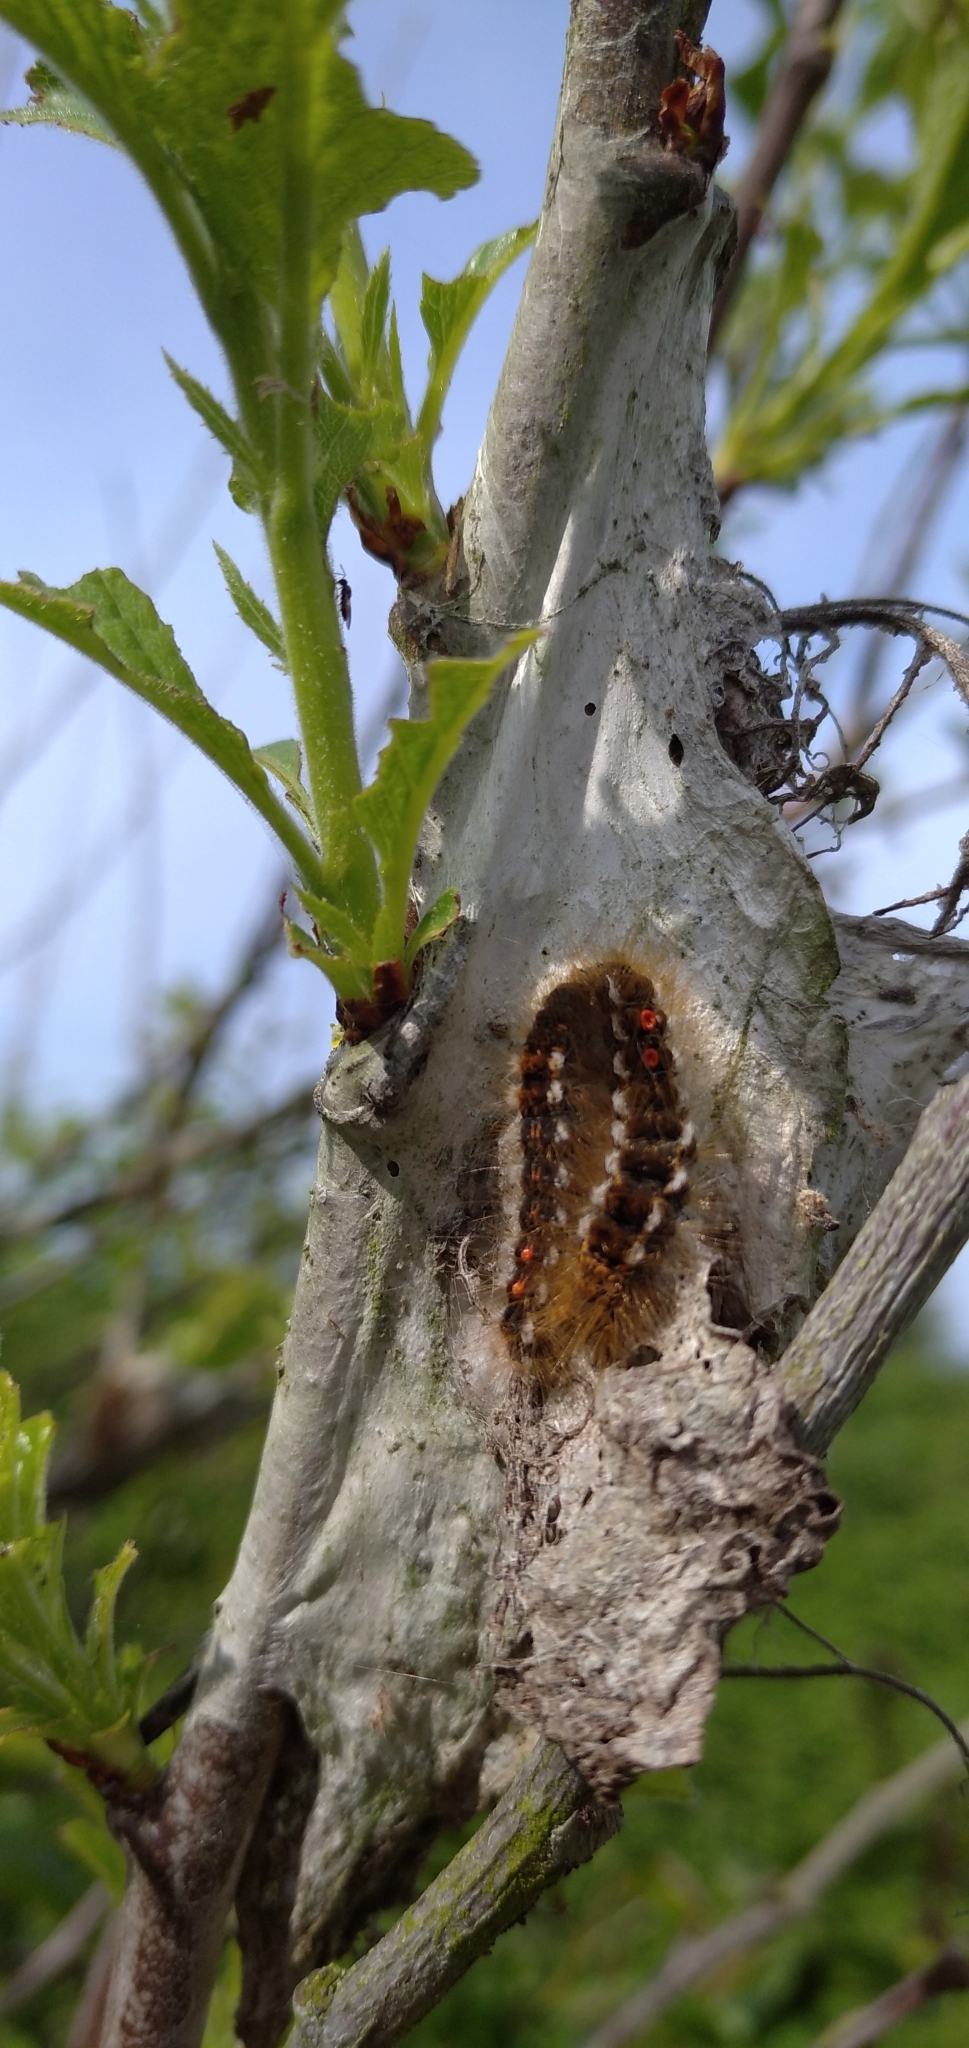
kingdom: Animalia
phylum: Arthropoda
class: Insecta
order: Lepidoptera
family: Erebidae
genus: Euproctis
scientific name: Euproctis chrysorrhoea
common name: Brown-tail
